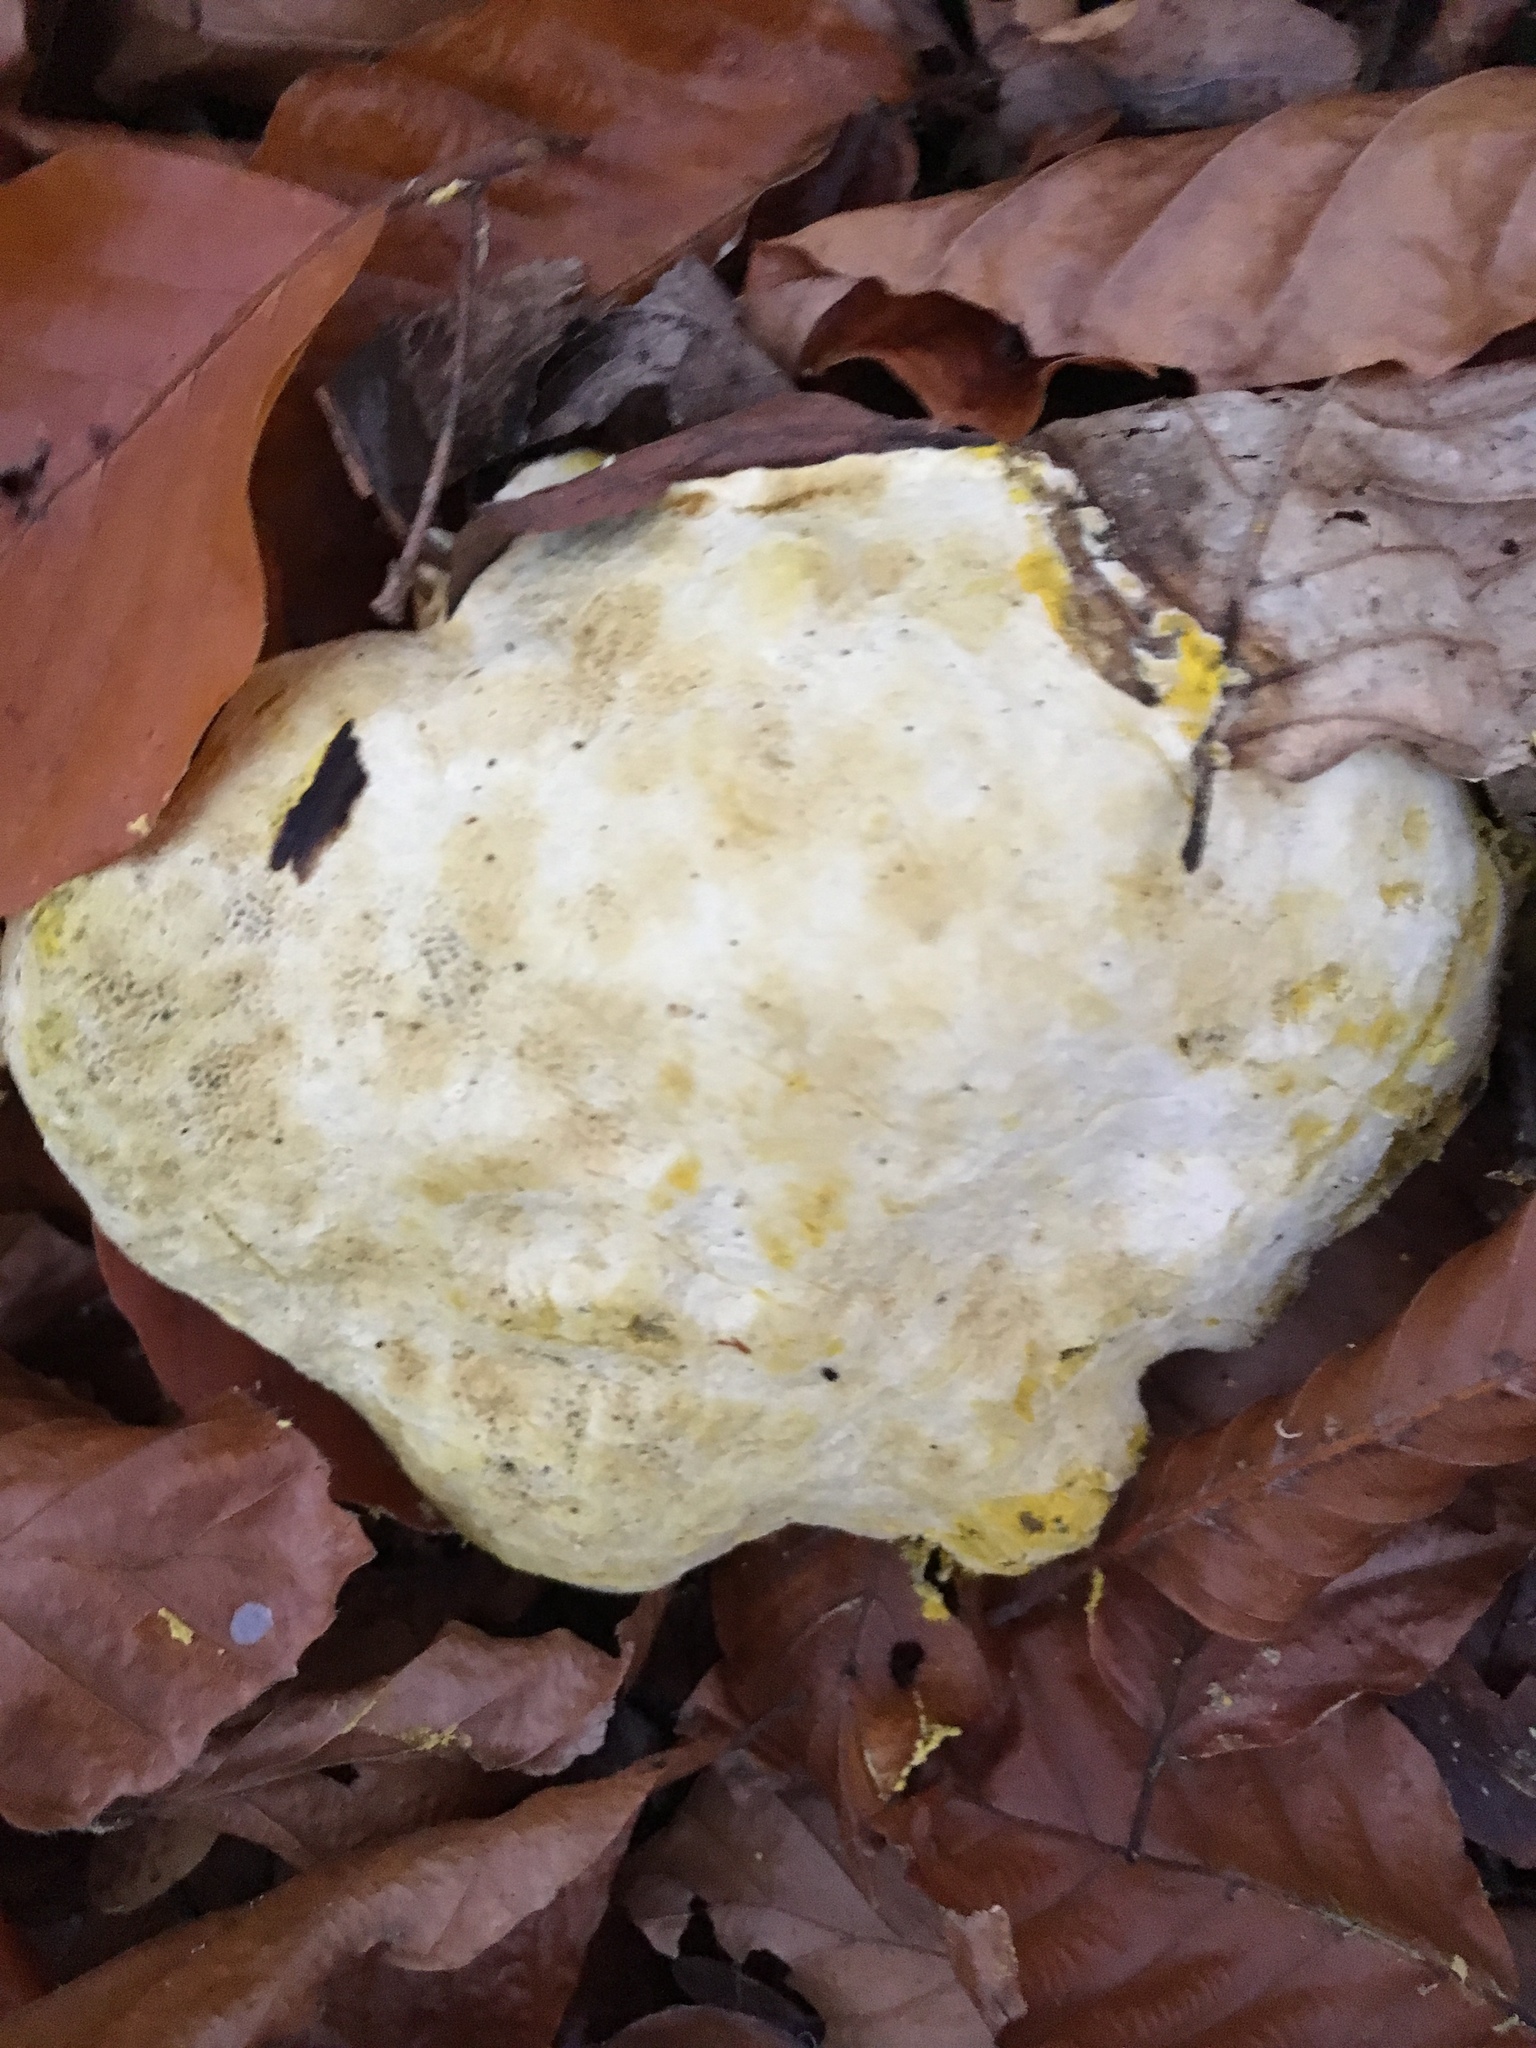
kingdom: Fungi
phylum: Ascomycota
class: Sordariomycetes
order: Hypocreales
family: Hypocreaceae
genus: Hypomyces
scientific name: Hypomyces chrysospermus
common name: Bolete mould
